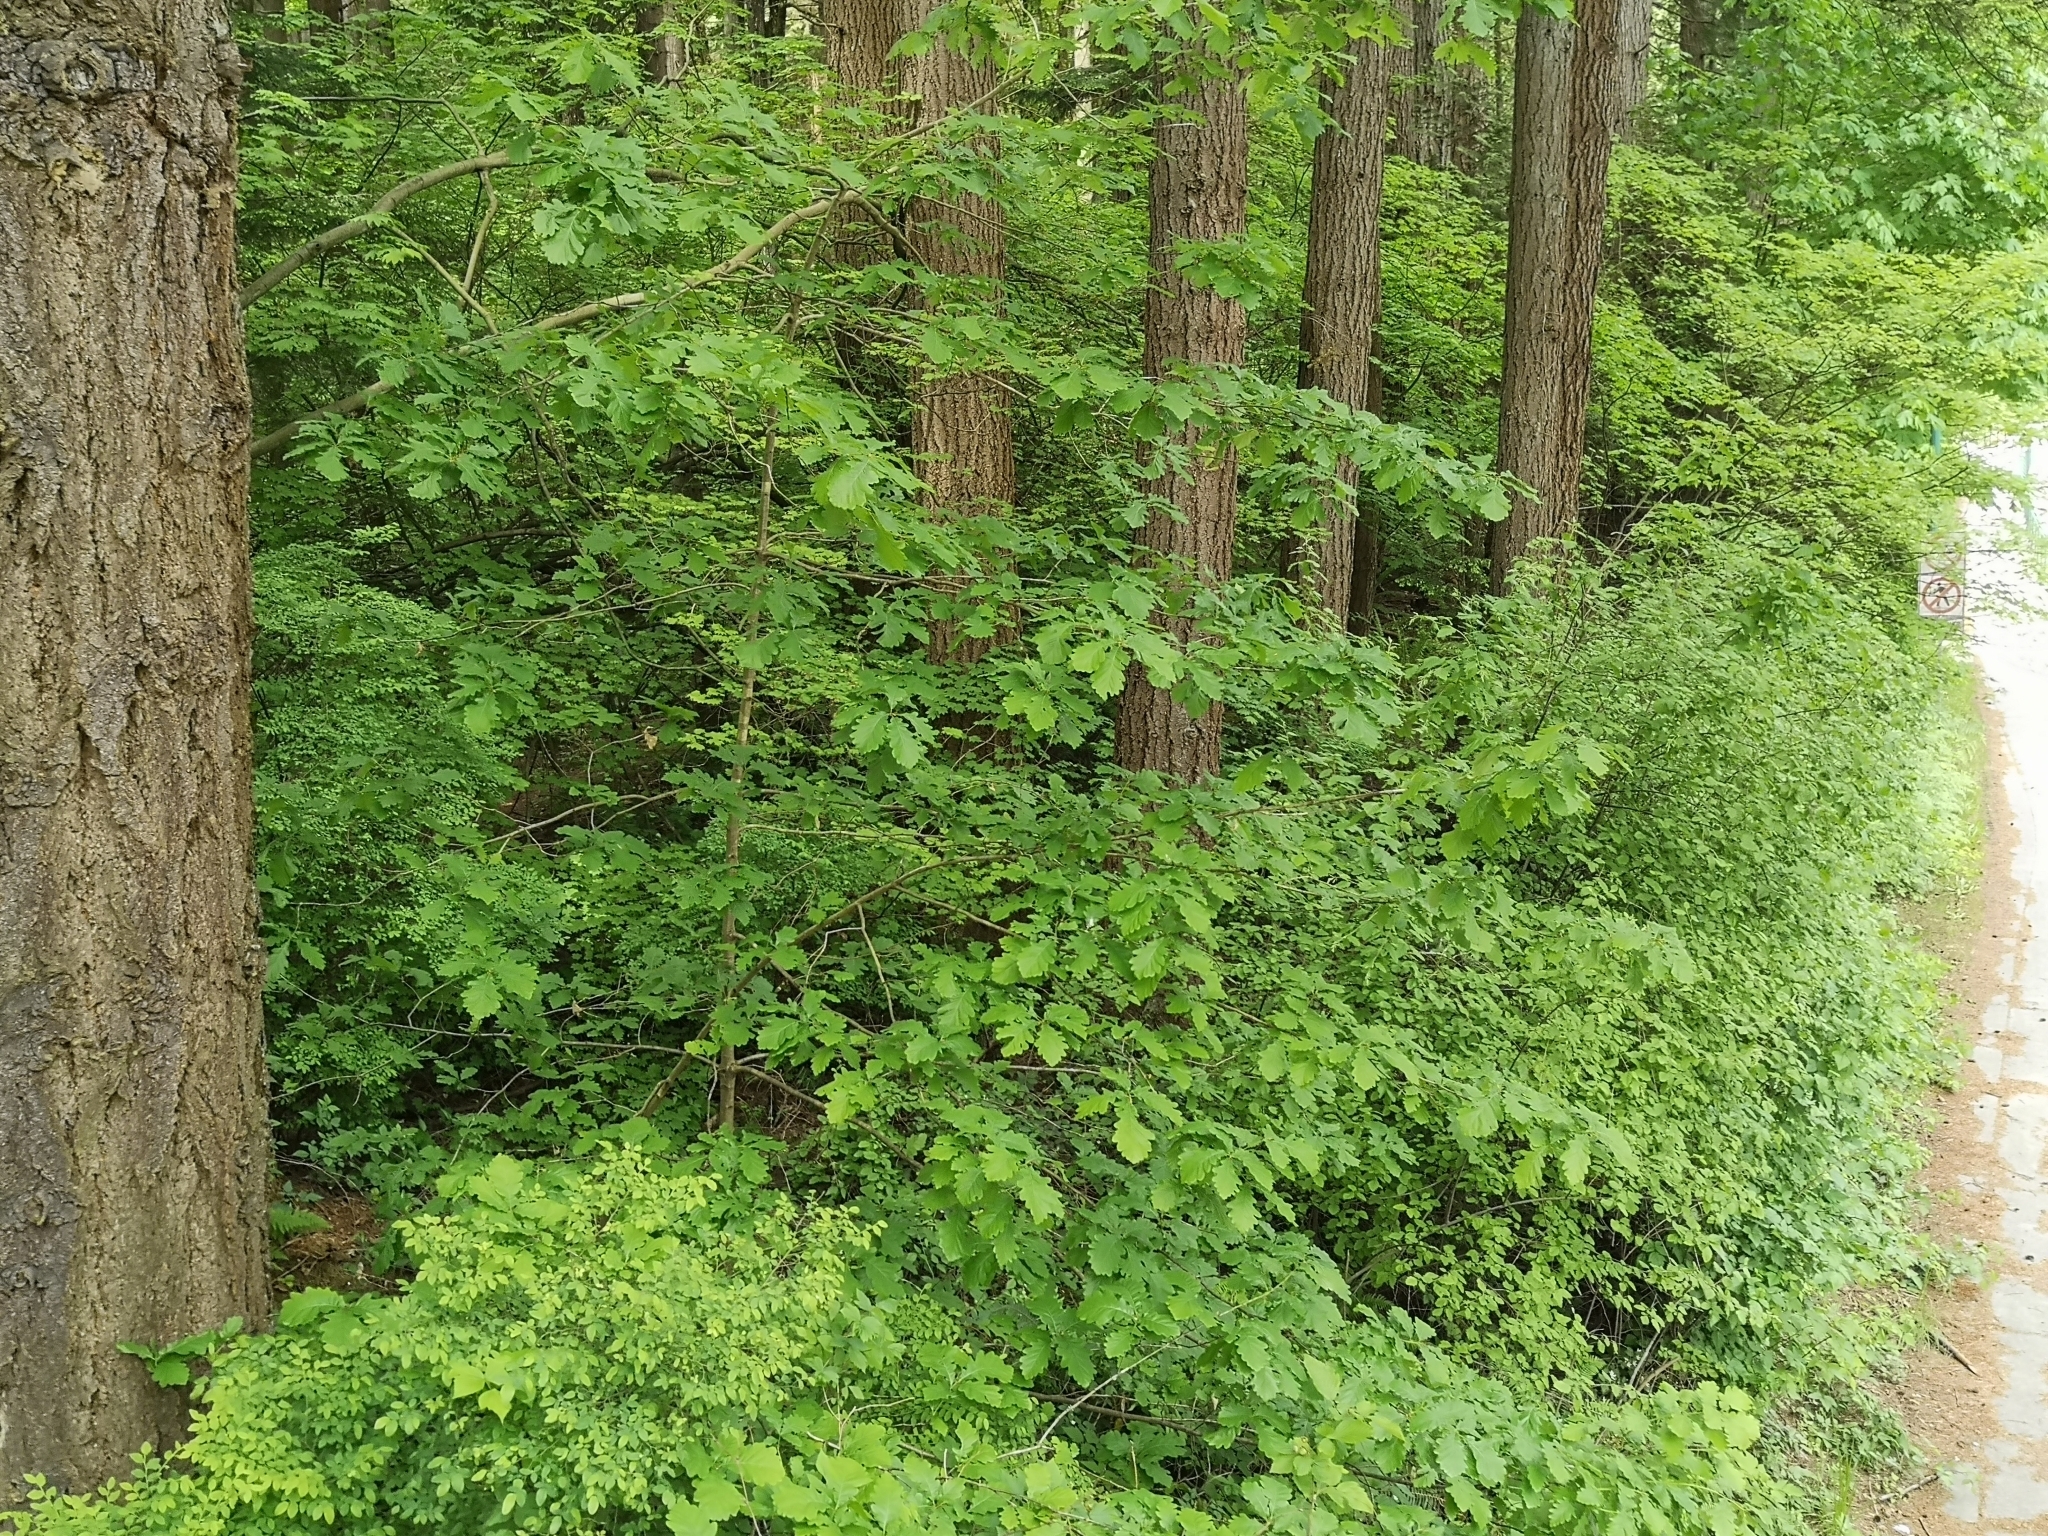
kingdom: Plantae
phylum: Tracheophyta
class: Magnoliopsida
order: Fagales
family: Fagaceae
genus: Quercus
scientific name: Quercus robur
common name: Pedunculate oak
